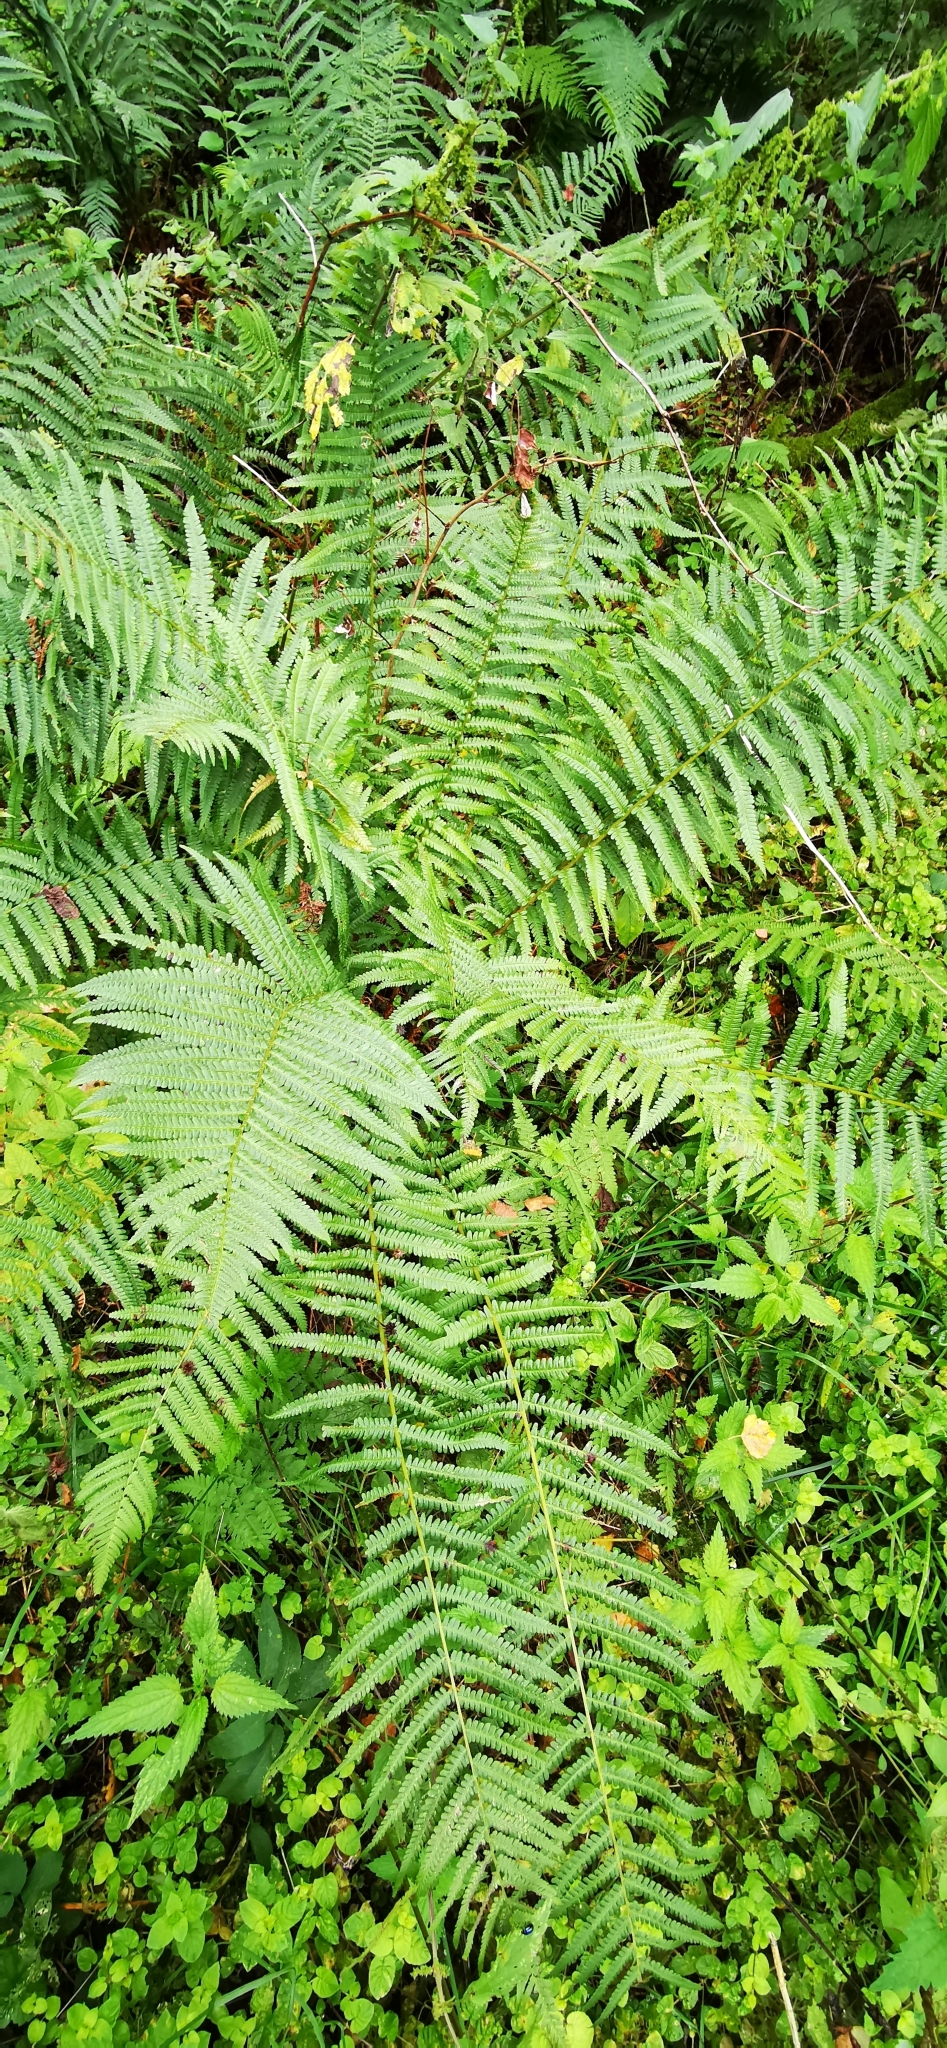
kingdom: Plantae
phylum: Tracheophyta
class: Polypodiopsida
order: Polypodiales
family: Dryopteridaceae
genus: Dryopteris
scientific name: Dryopteris filix-mas
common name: Male fern
